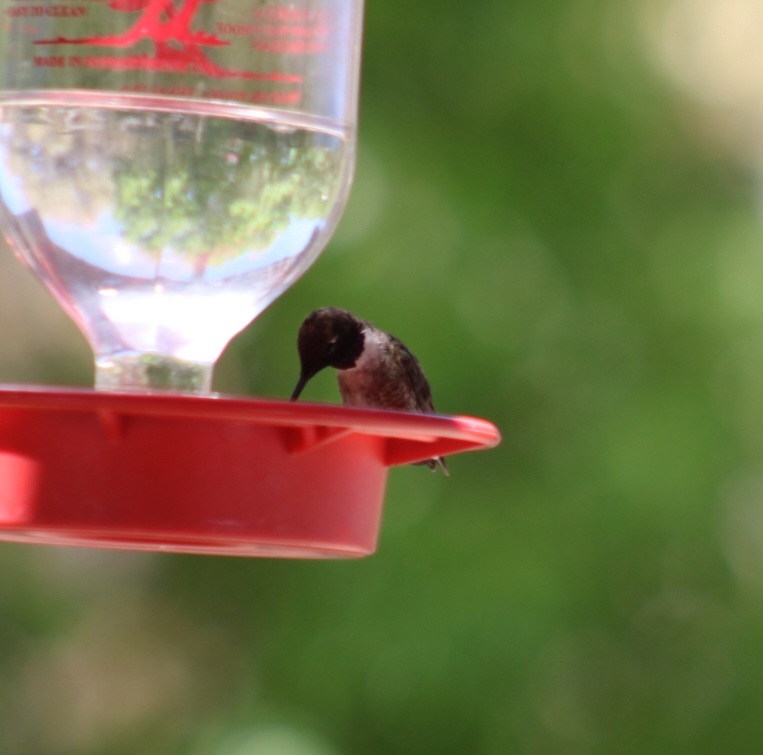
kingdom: Animalia
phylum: Chordata
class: Aves
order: Apodiformes
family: Trochilidae
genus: Archilochus
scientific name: Archilochus alexandri
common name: Black-chinned hummingbird
